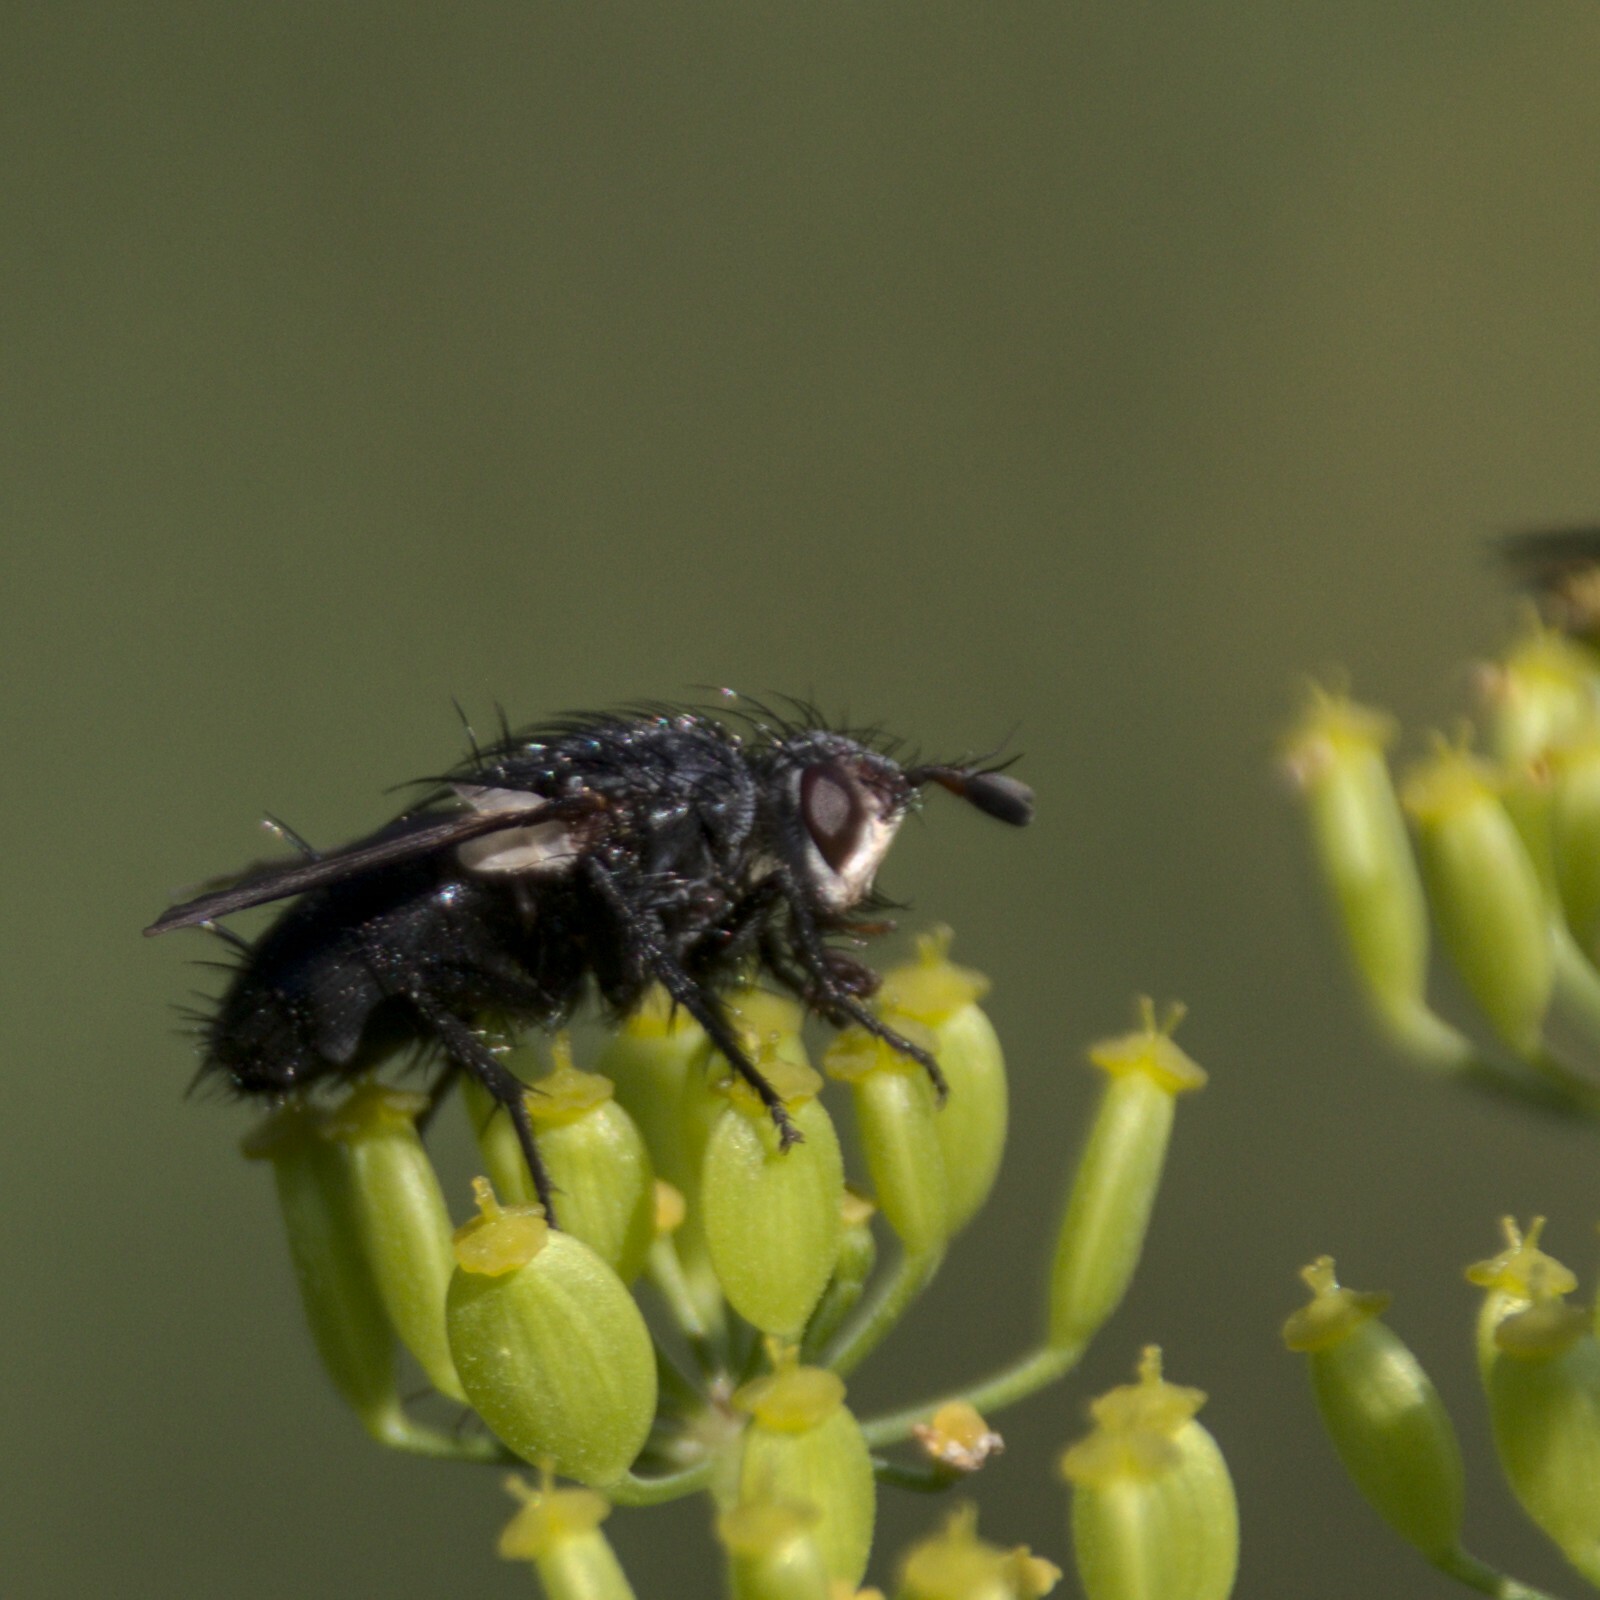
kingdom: Animalia
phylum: Arthropoda
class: Insecta
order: Diptera
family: Tachinidae
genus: Germaria
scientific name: Germaria ruficeps
